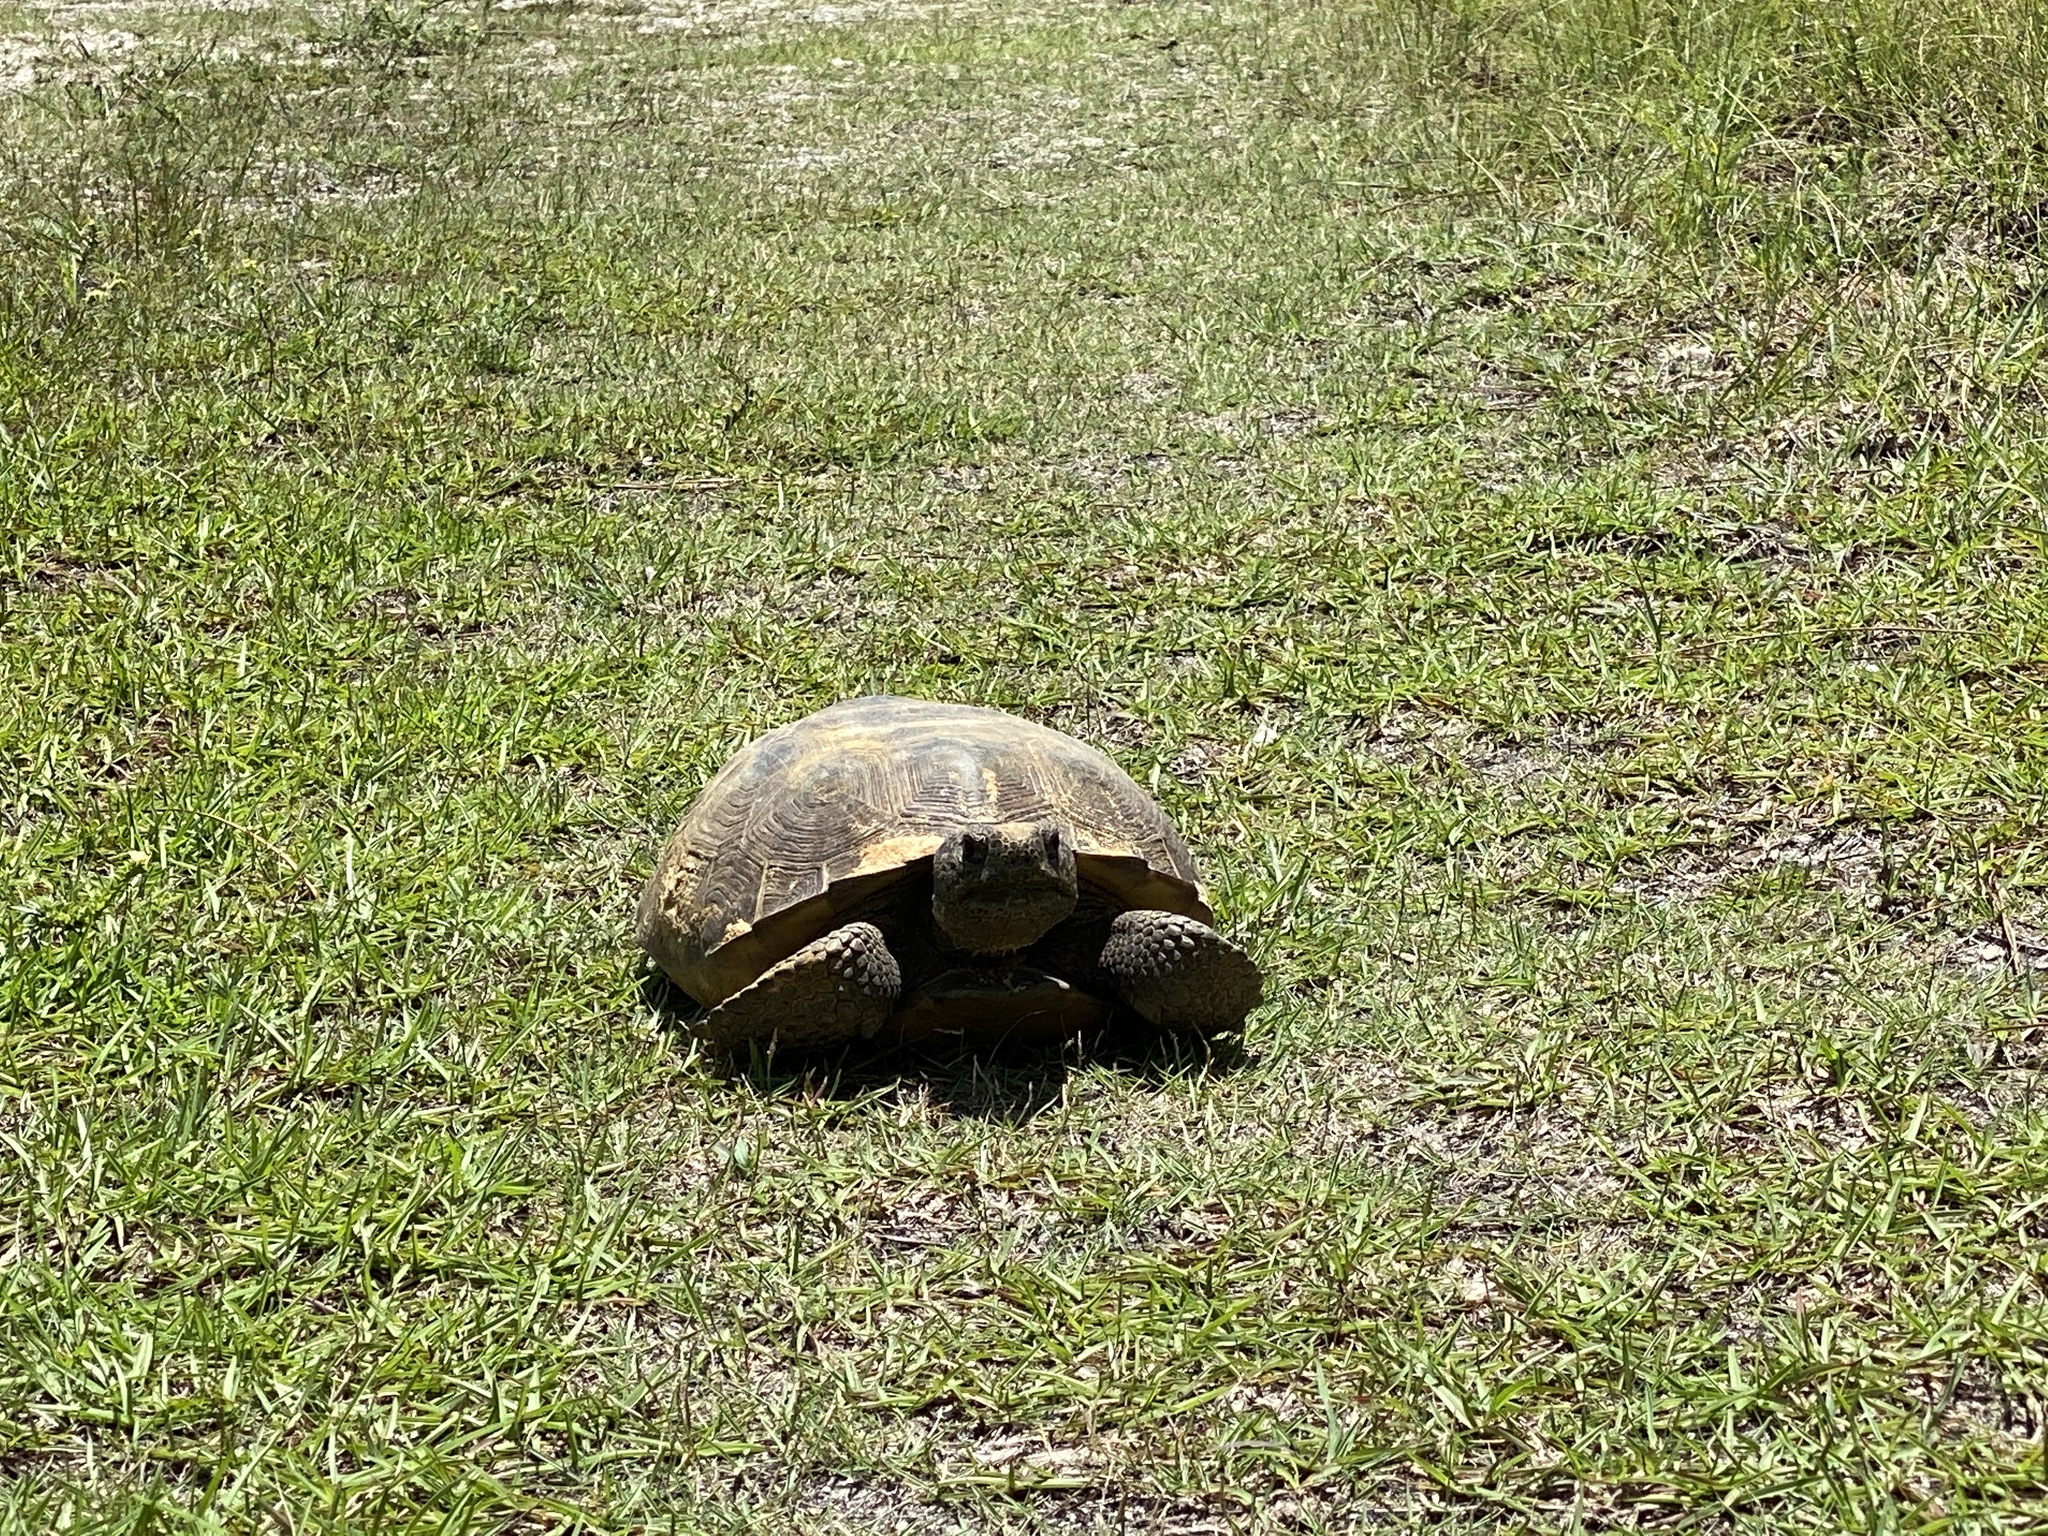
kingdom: Animalia
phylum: Chordata
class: Testudines
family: Testudinidae
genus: Gopherus
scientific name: Gopherus polyphemus
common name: Florida gopher tortoise
